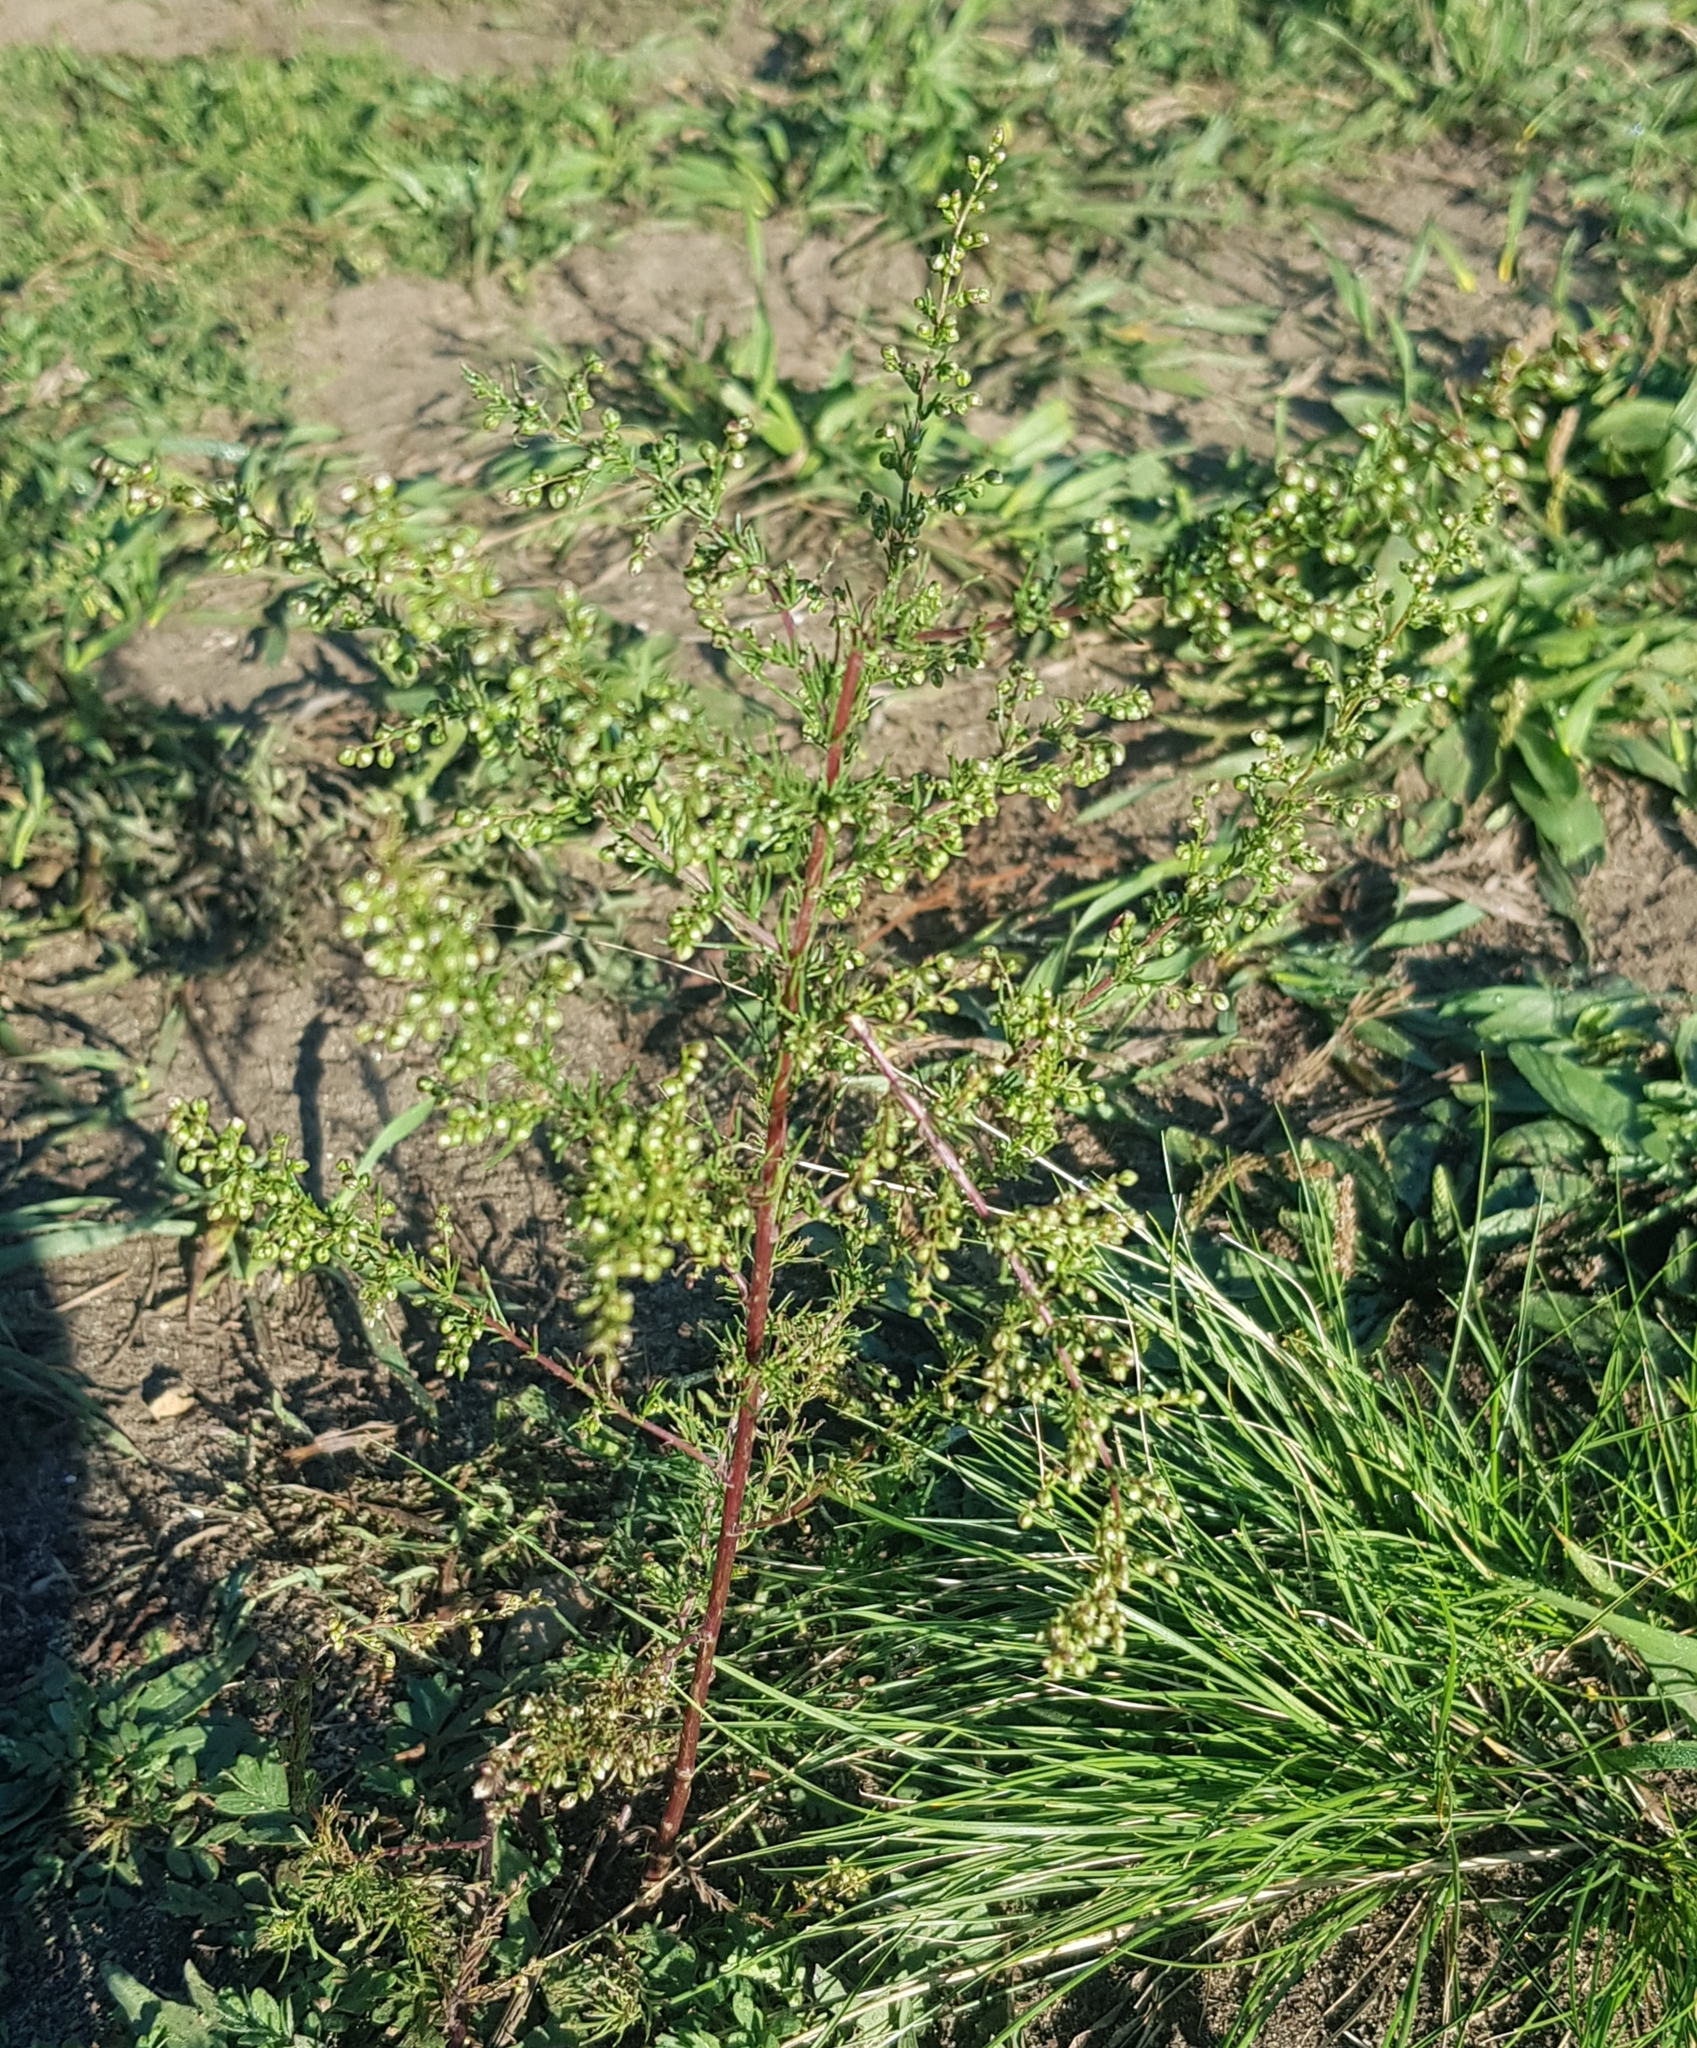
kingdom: Plantae
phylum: Tracheophyta
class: Magnoliopsida
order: Asterales
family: Asteraceae
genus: Artemisia
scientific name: Artemisia scoparia
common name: Redstem wormwood
